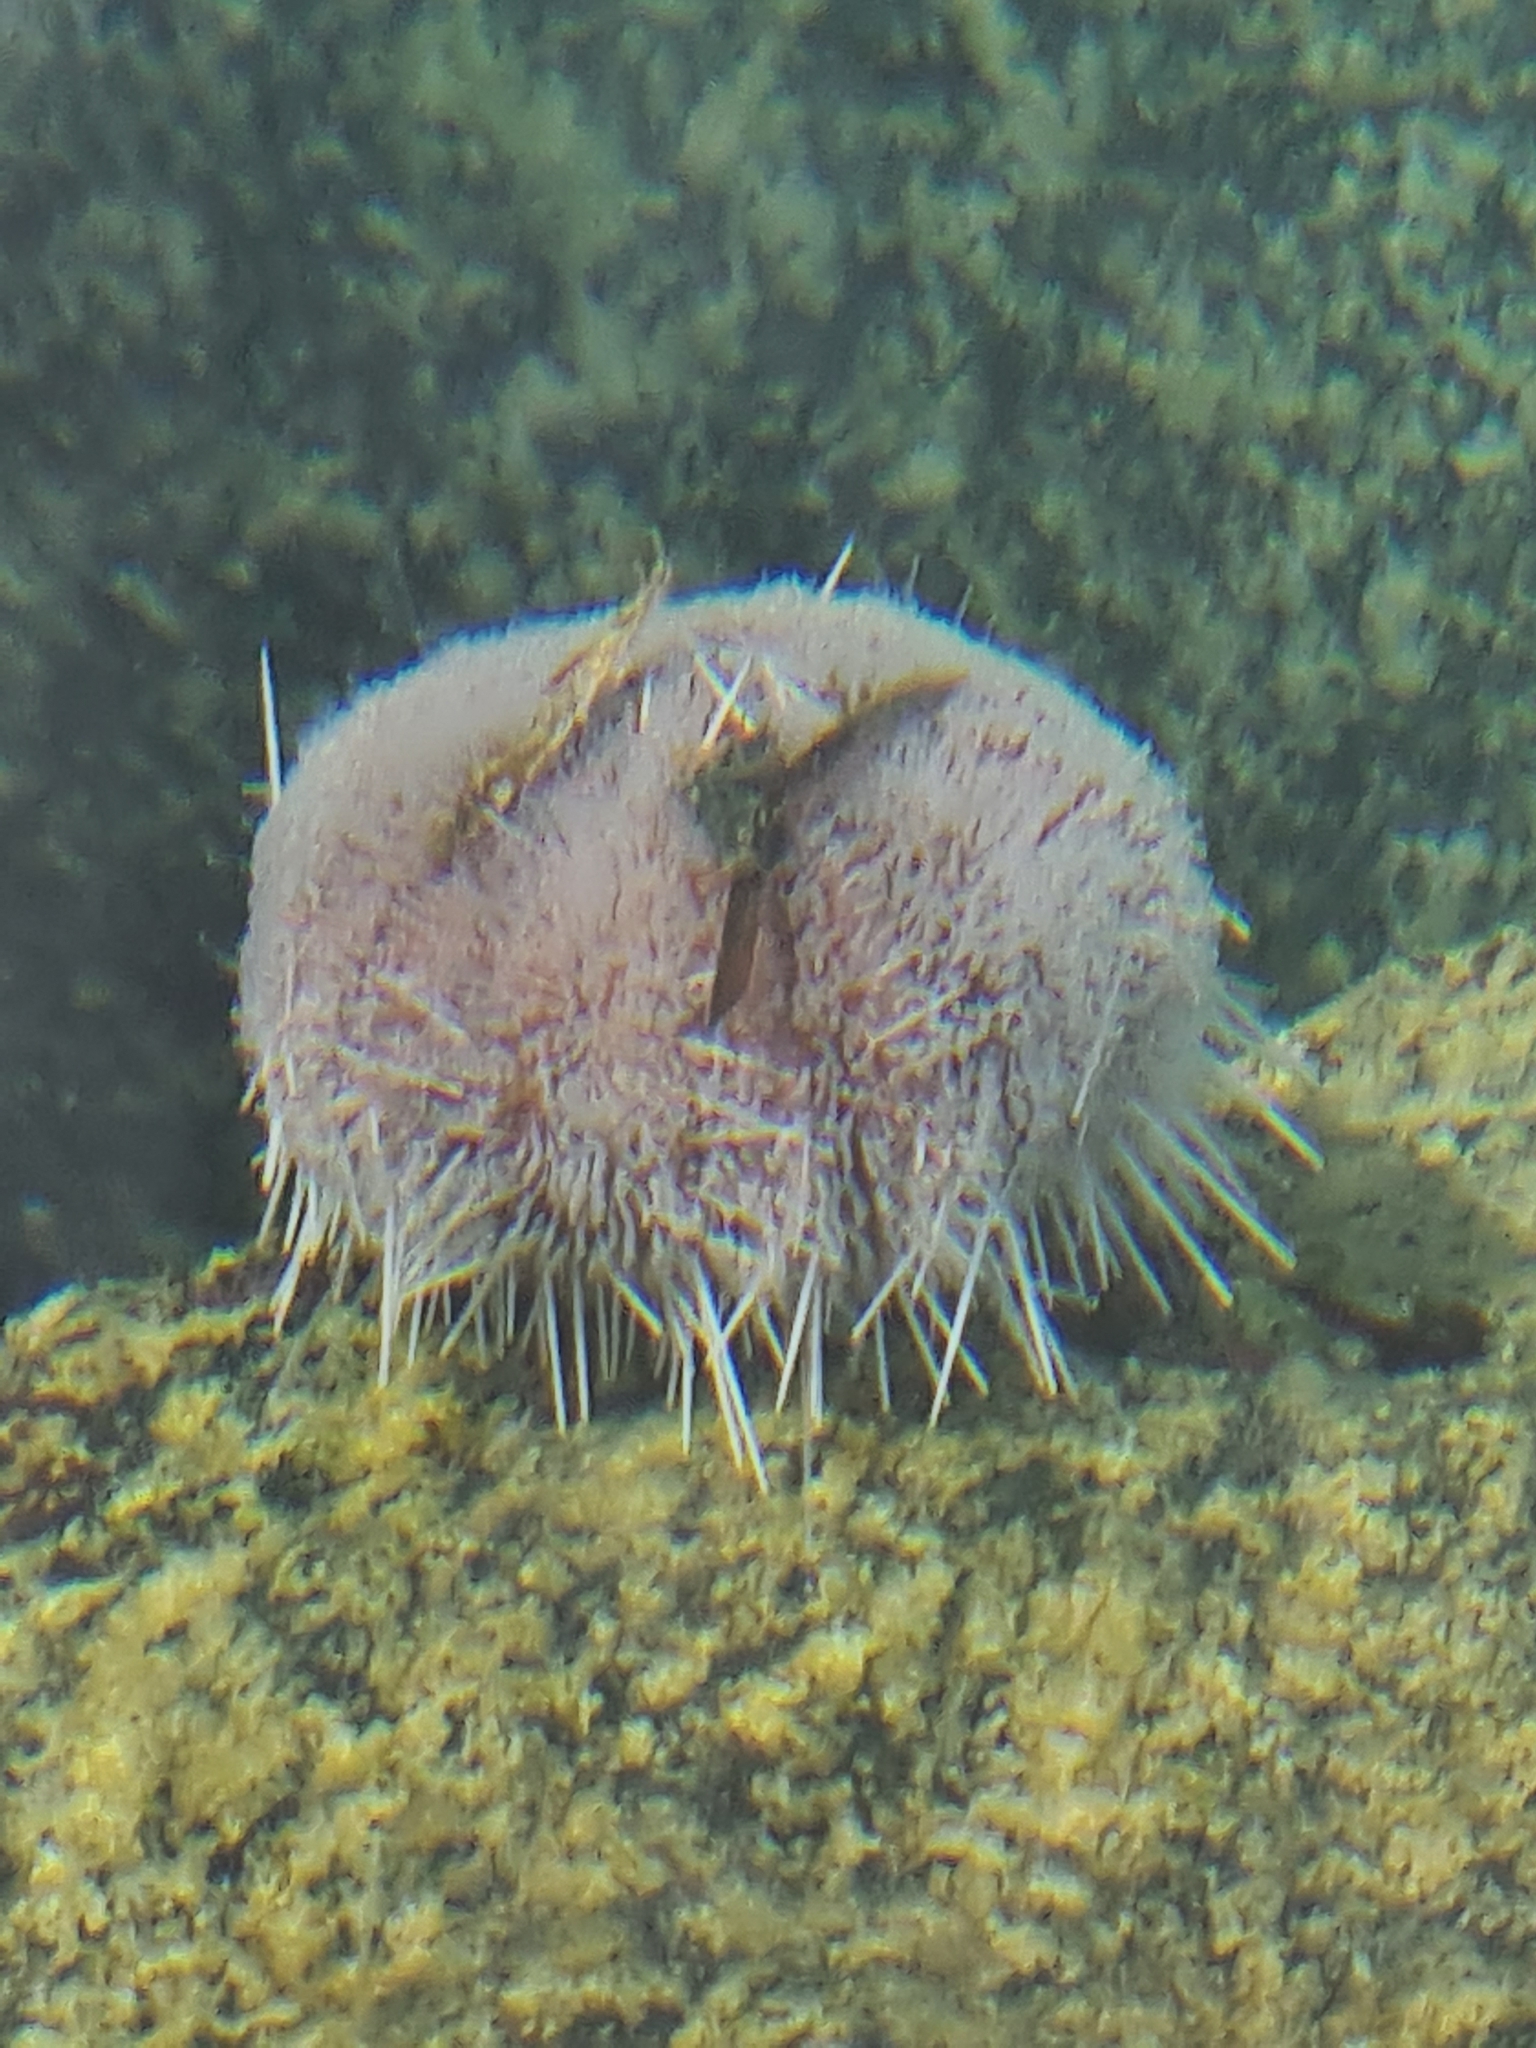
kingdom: Animalia
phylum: Echinodermata
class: Echinoidea
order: Camarodonta
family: Toxopneustidae
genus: Tripneustes
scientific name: Tripneustes gratilla
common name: Bischofsmützenseeigel
